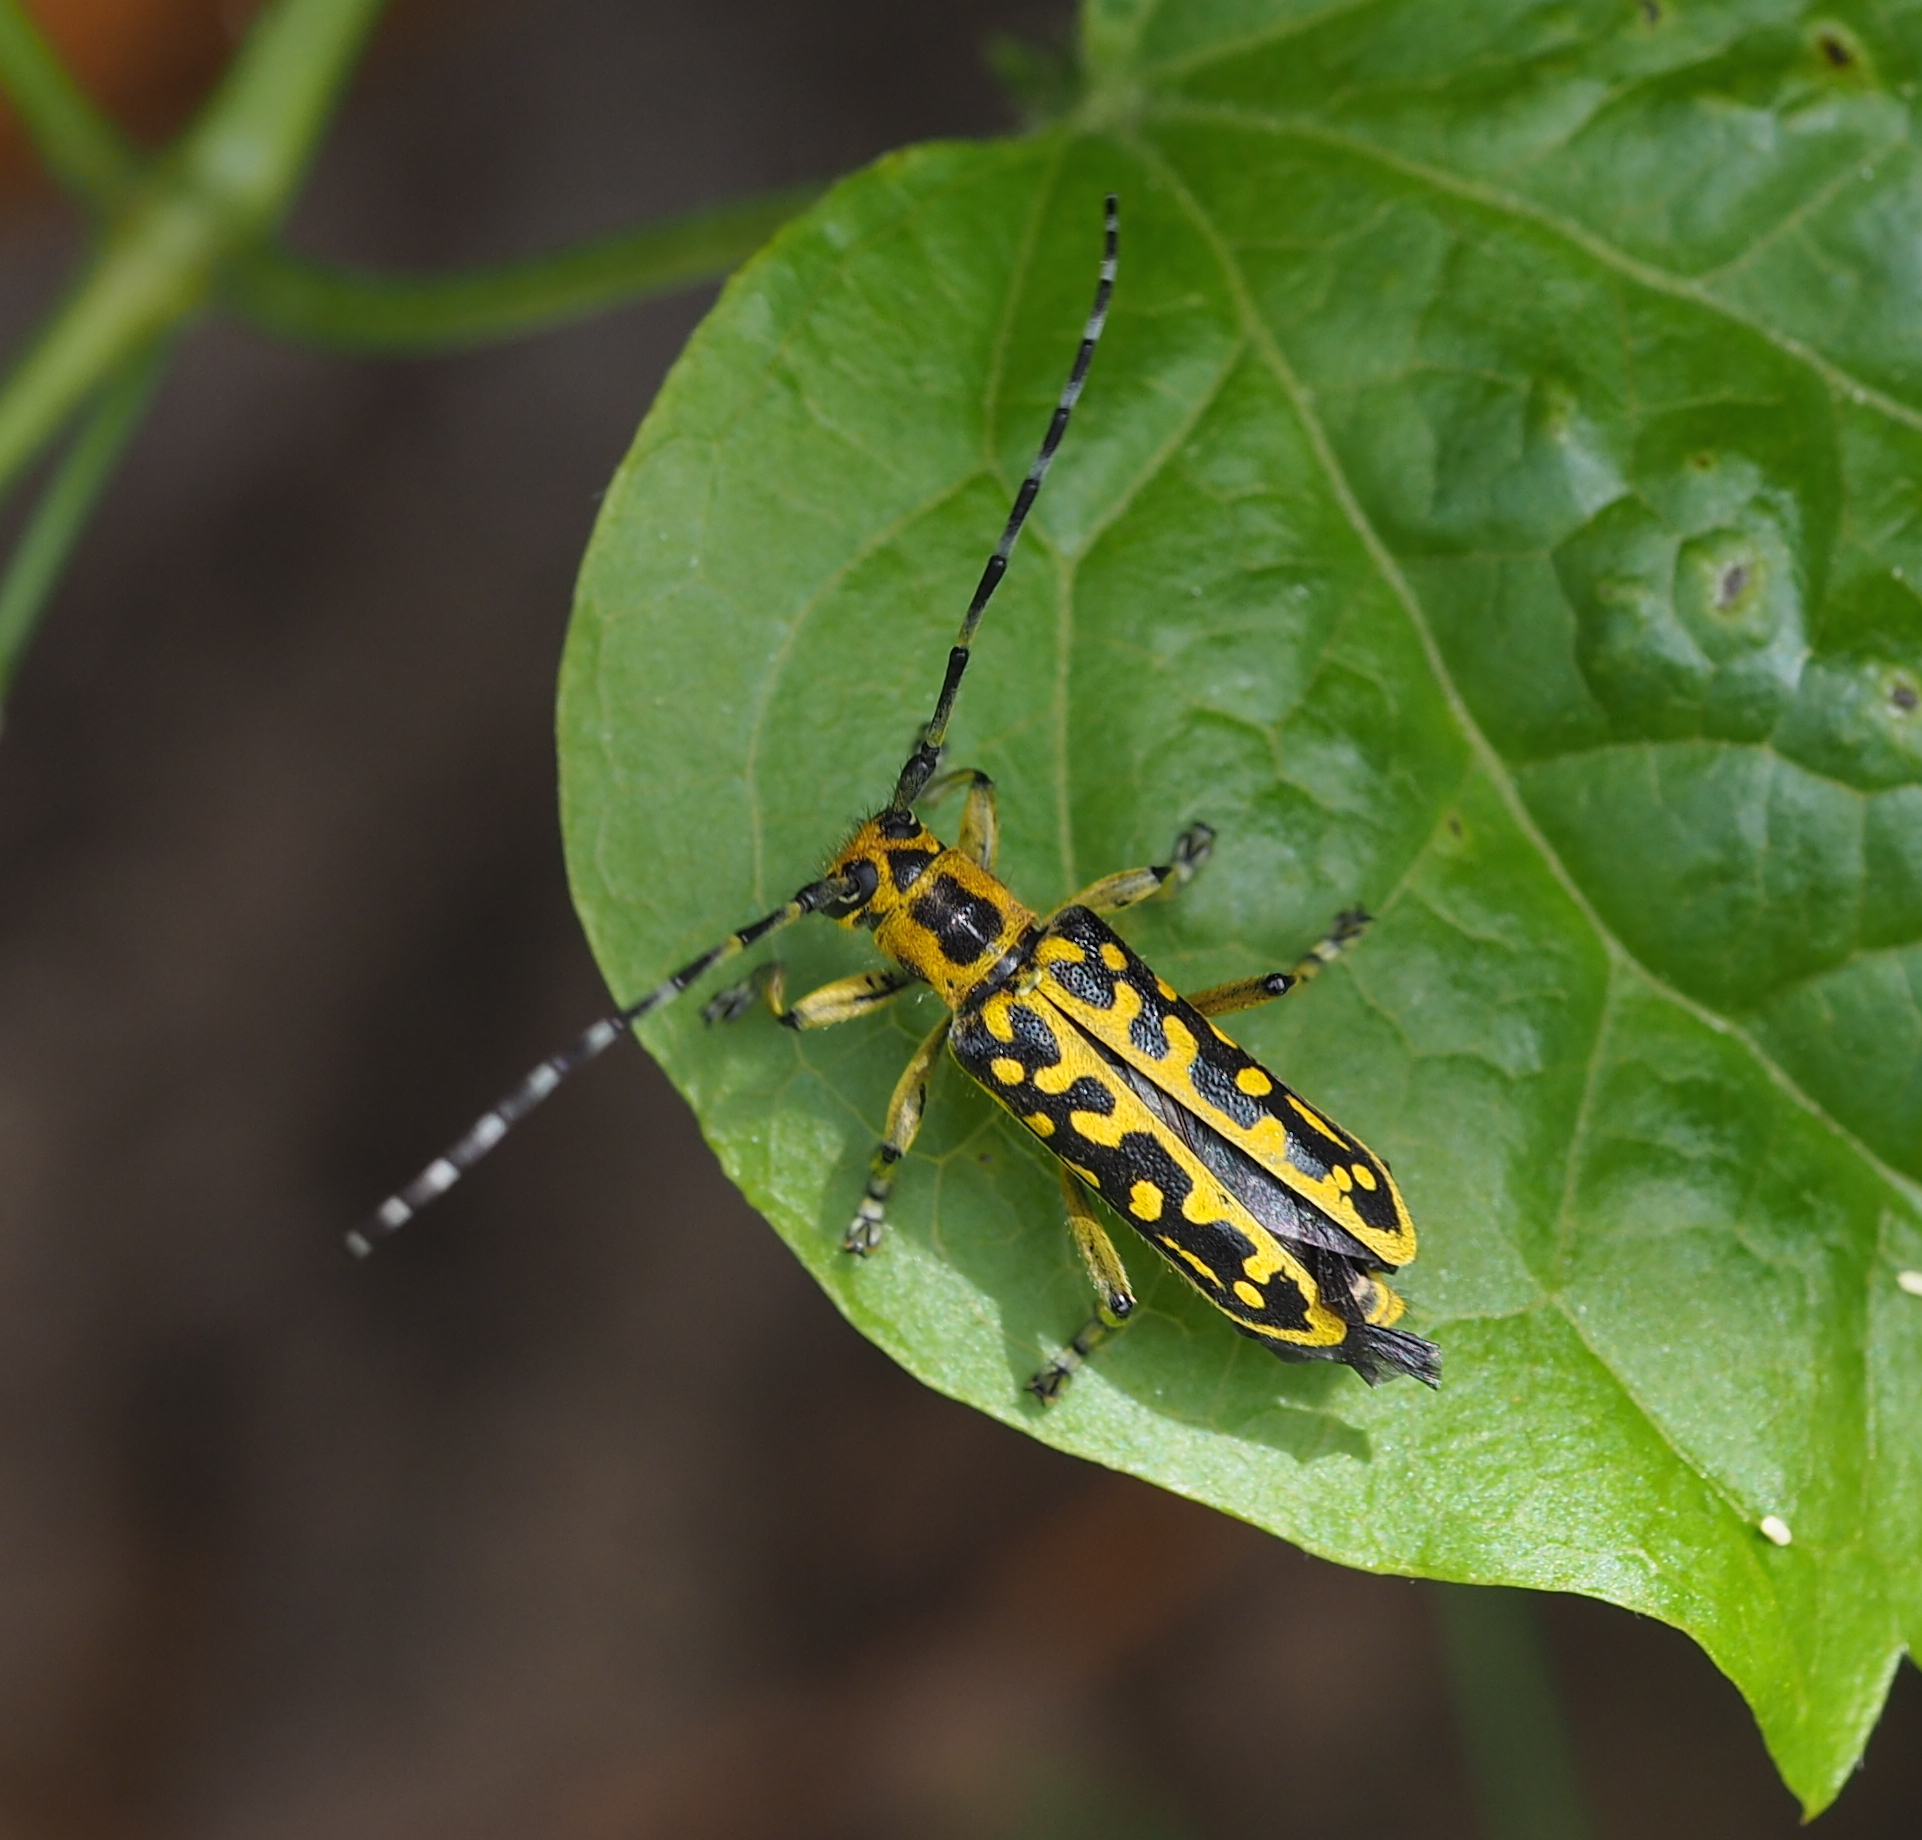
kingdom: Animalia
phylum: Arthropoda
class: Insecta
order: Coleoptera
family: Cerambycidae
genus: Saperda
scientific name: Saperda scalaris
